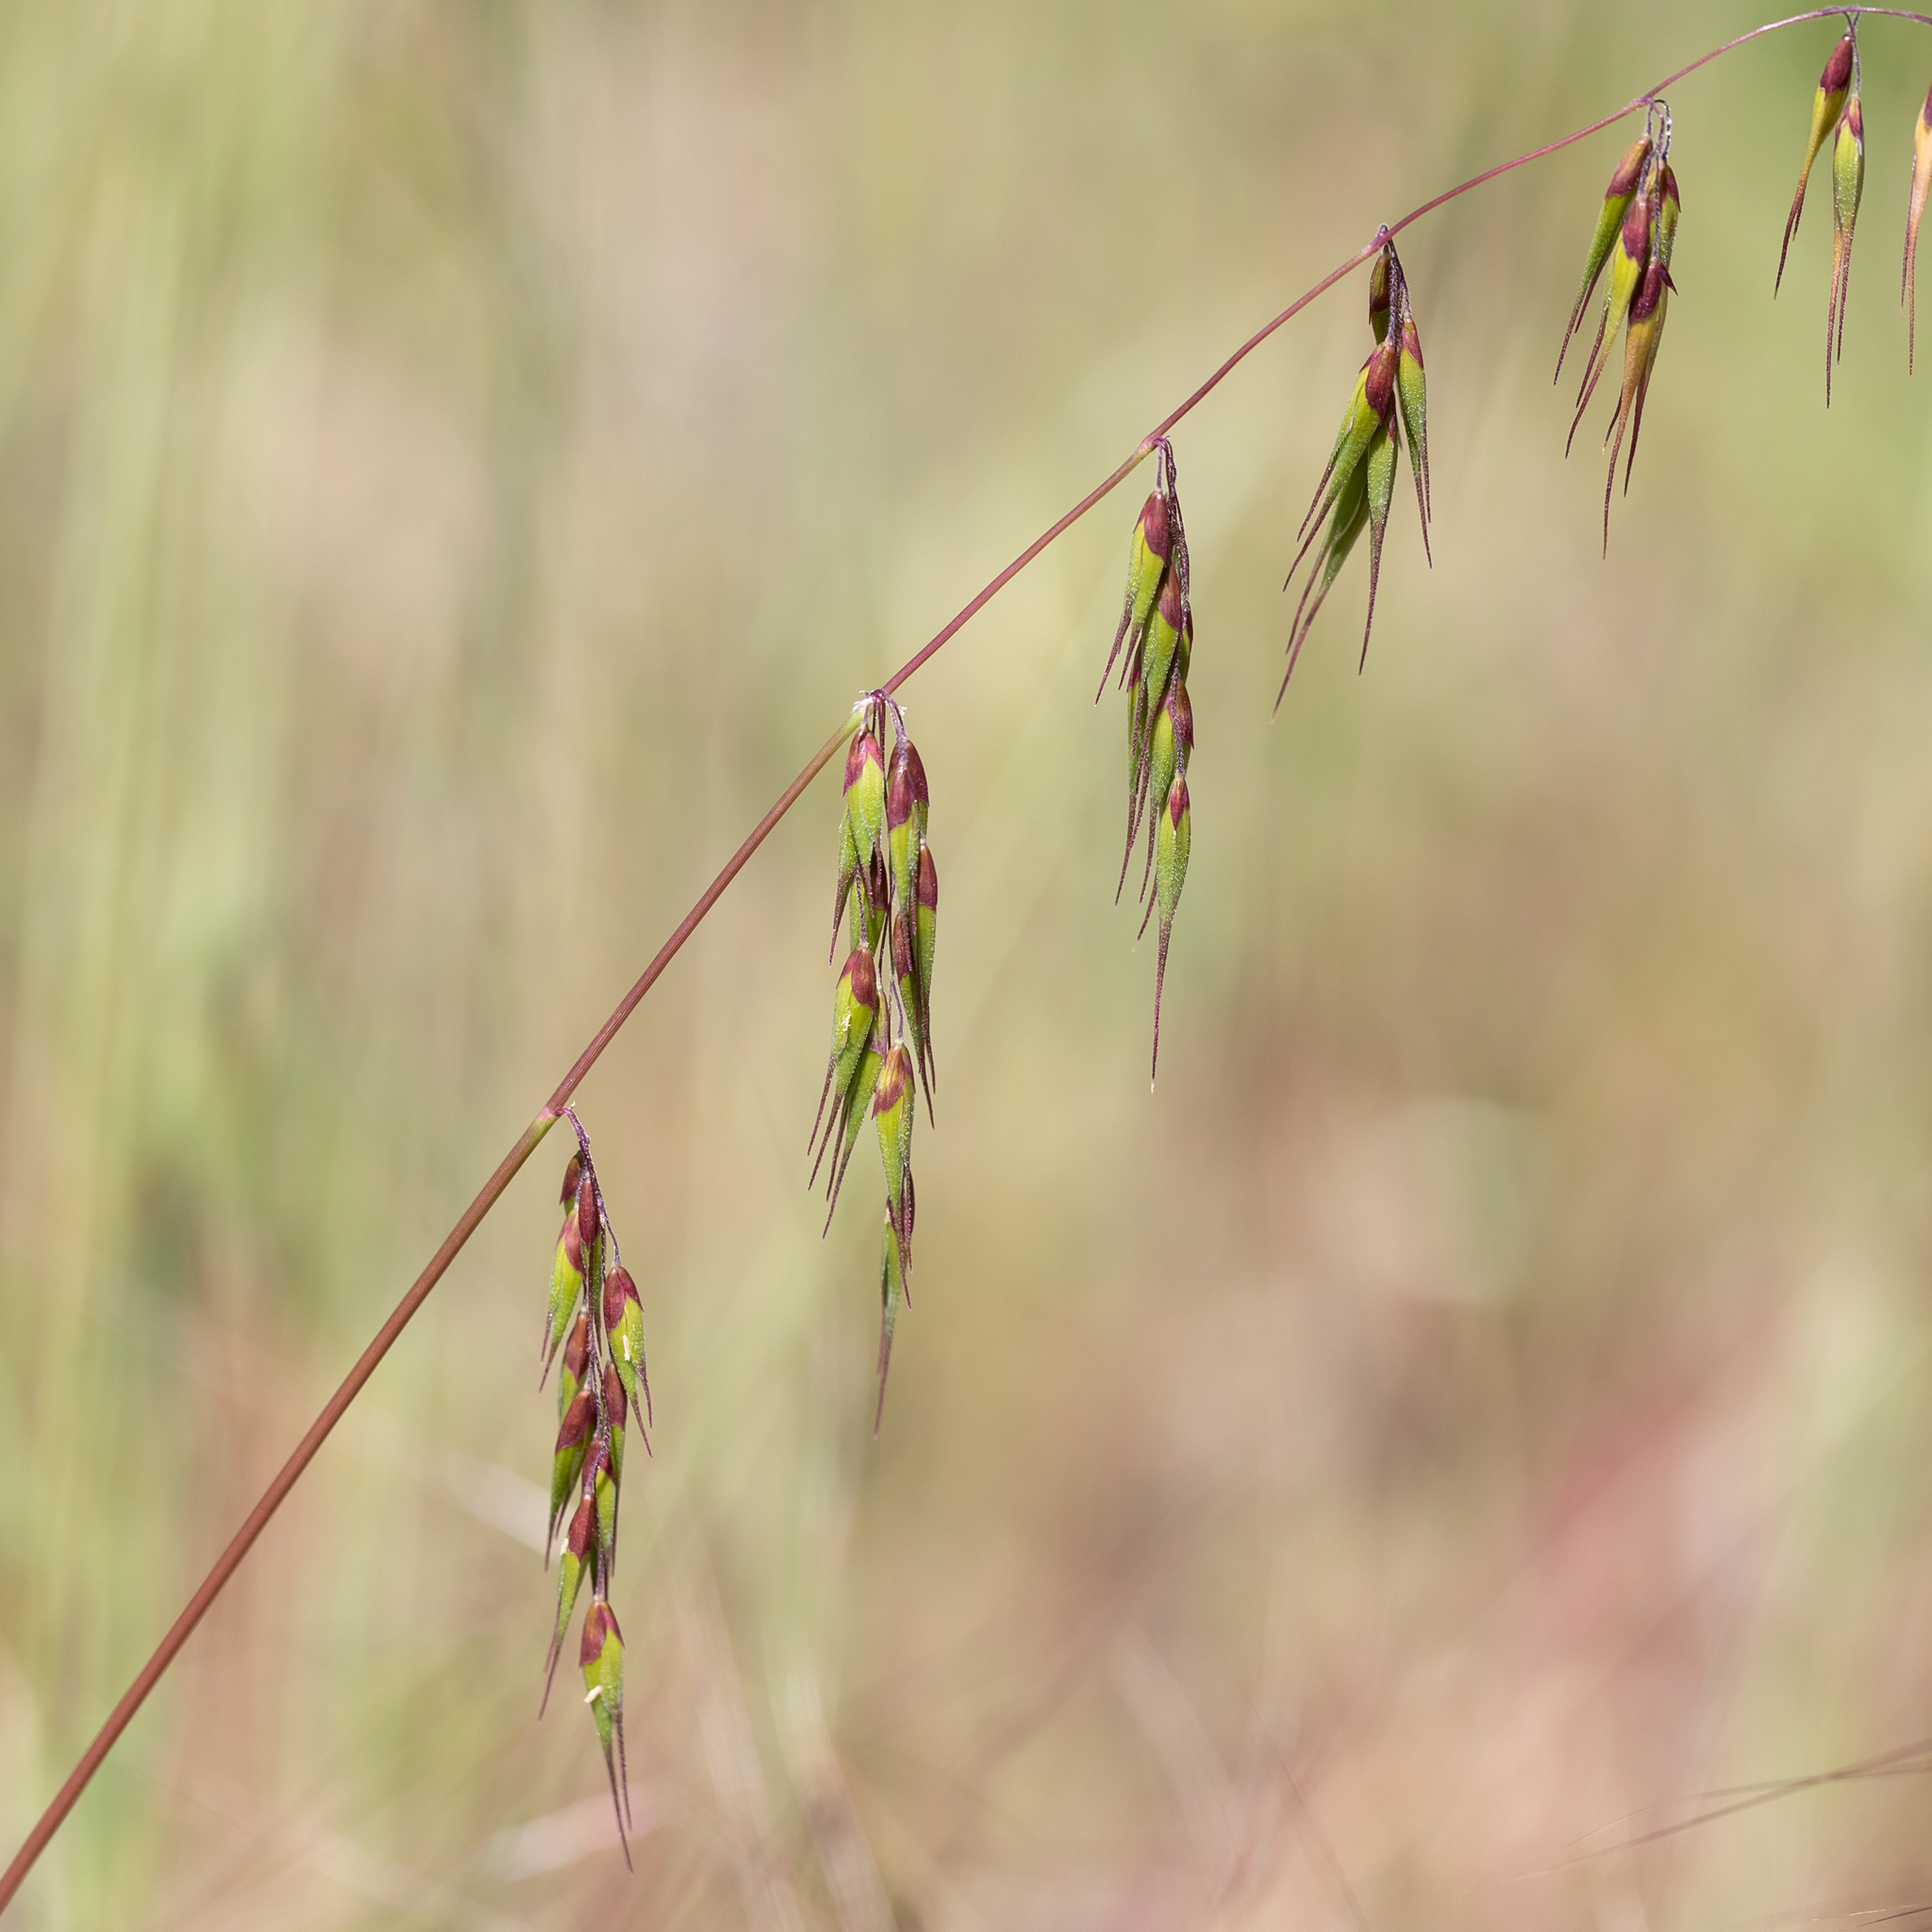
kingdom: Plantae
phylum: Tracheophyta
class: Liliopsida
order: Poales
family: Poaceae
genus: Ehrharta
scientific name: Ehrharta longiflora
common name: Longflowered veldtgrass
